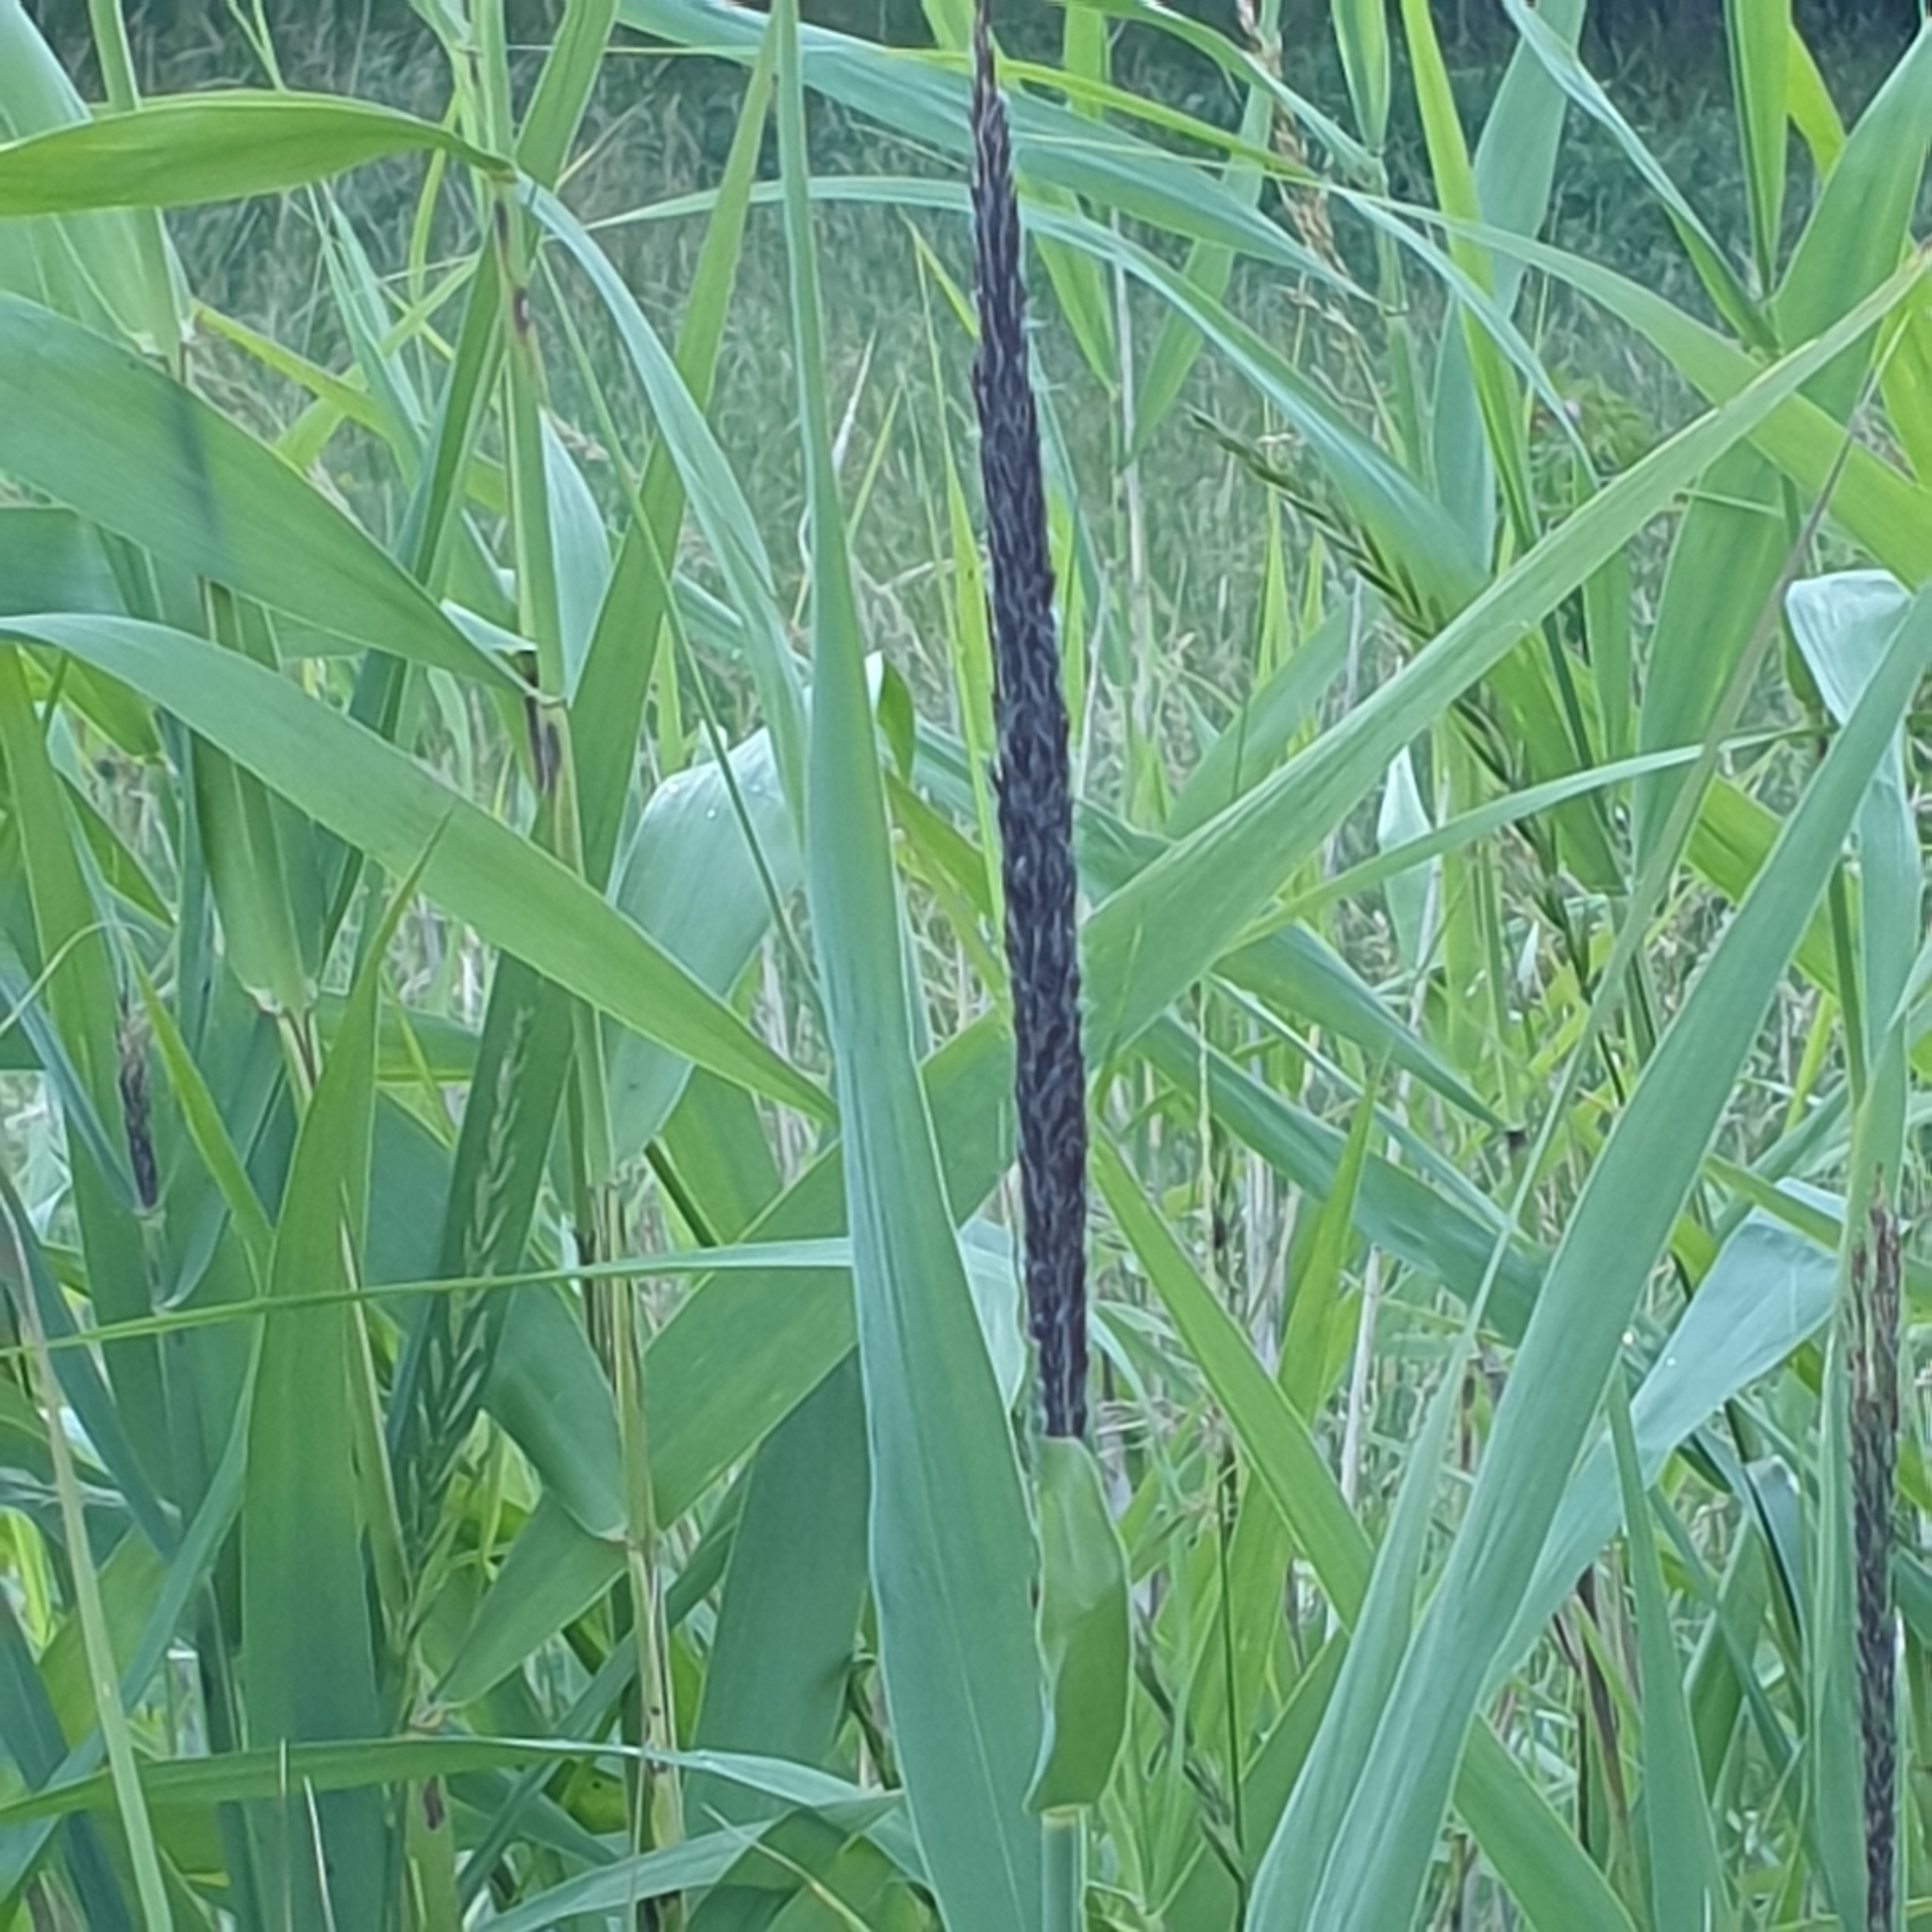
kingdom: Plantae
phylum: Tracheophyta
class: Liliopsida
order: Poales
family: Poaceae
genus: Phragmites
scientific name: Phragmites australis
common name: Common reed
